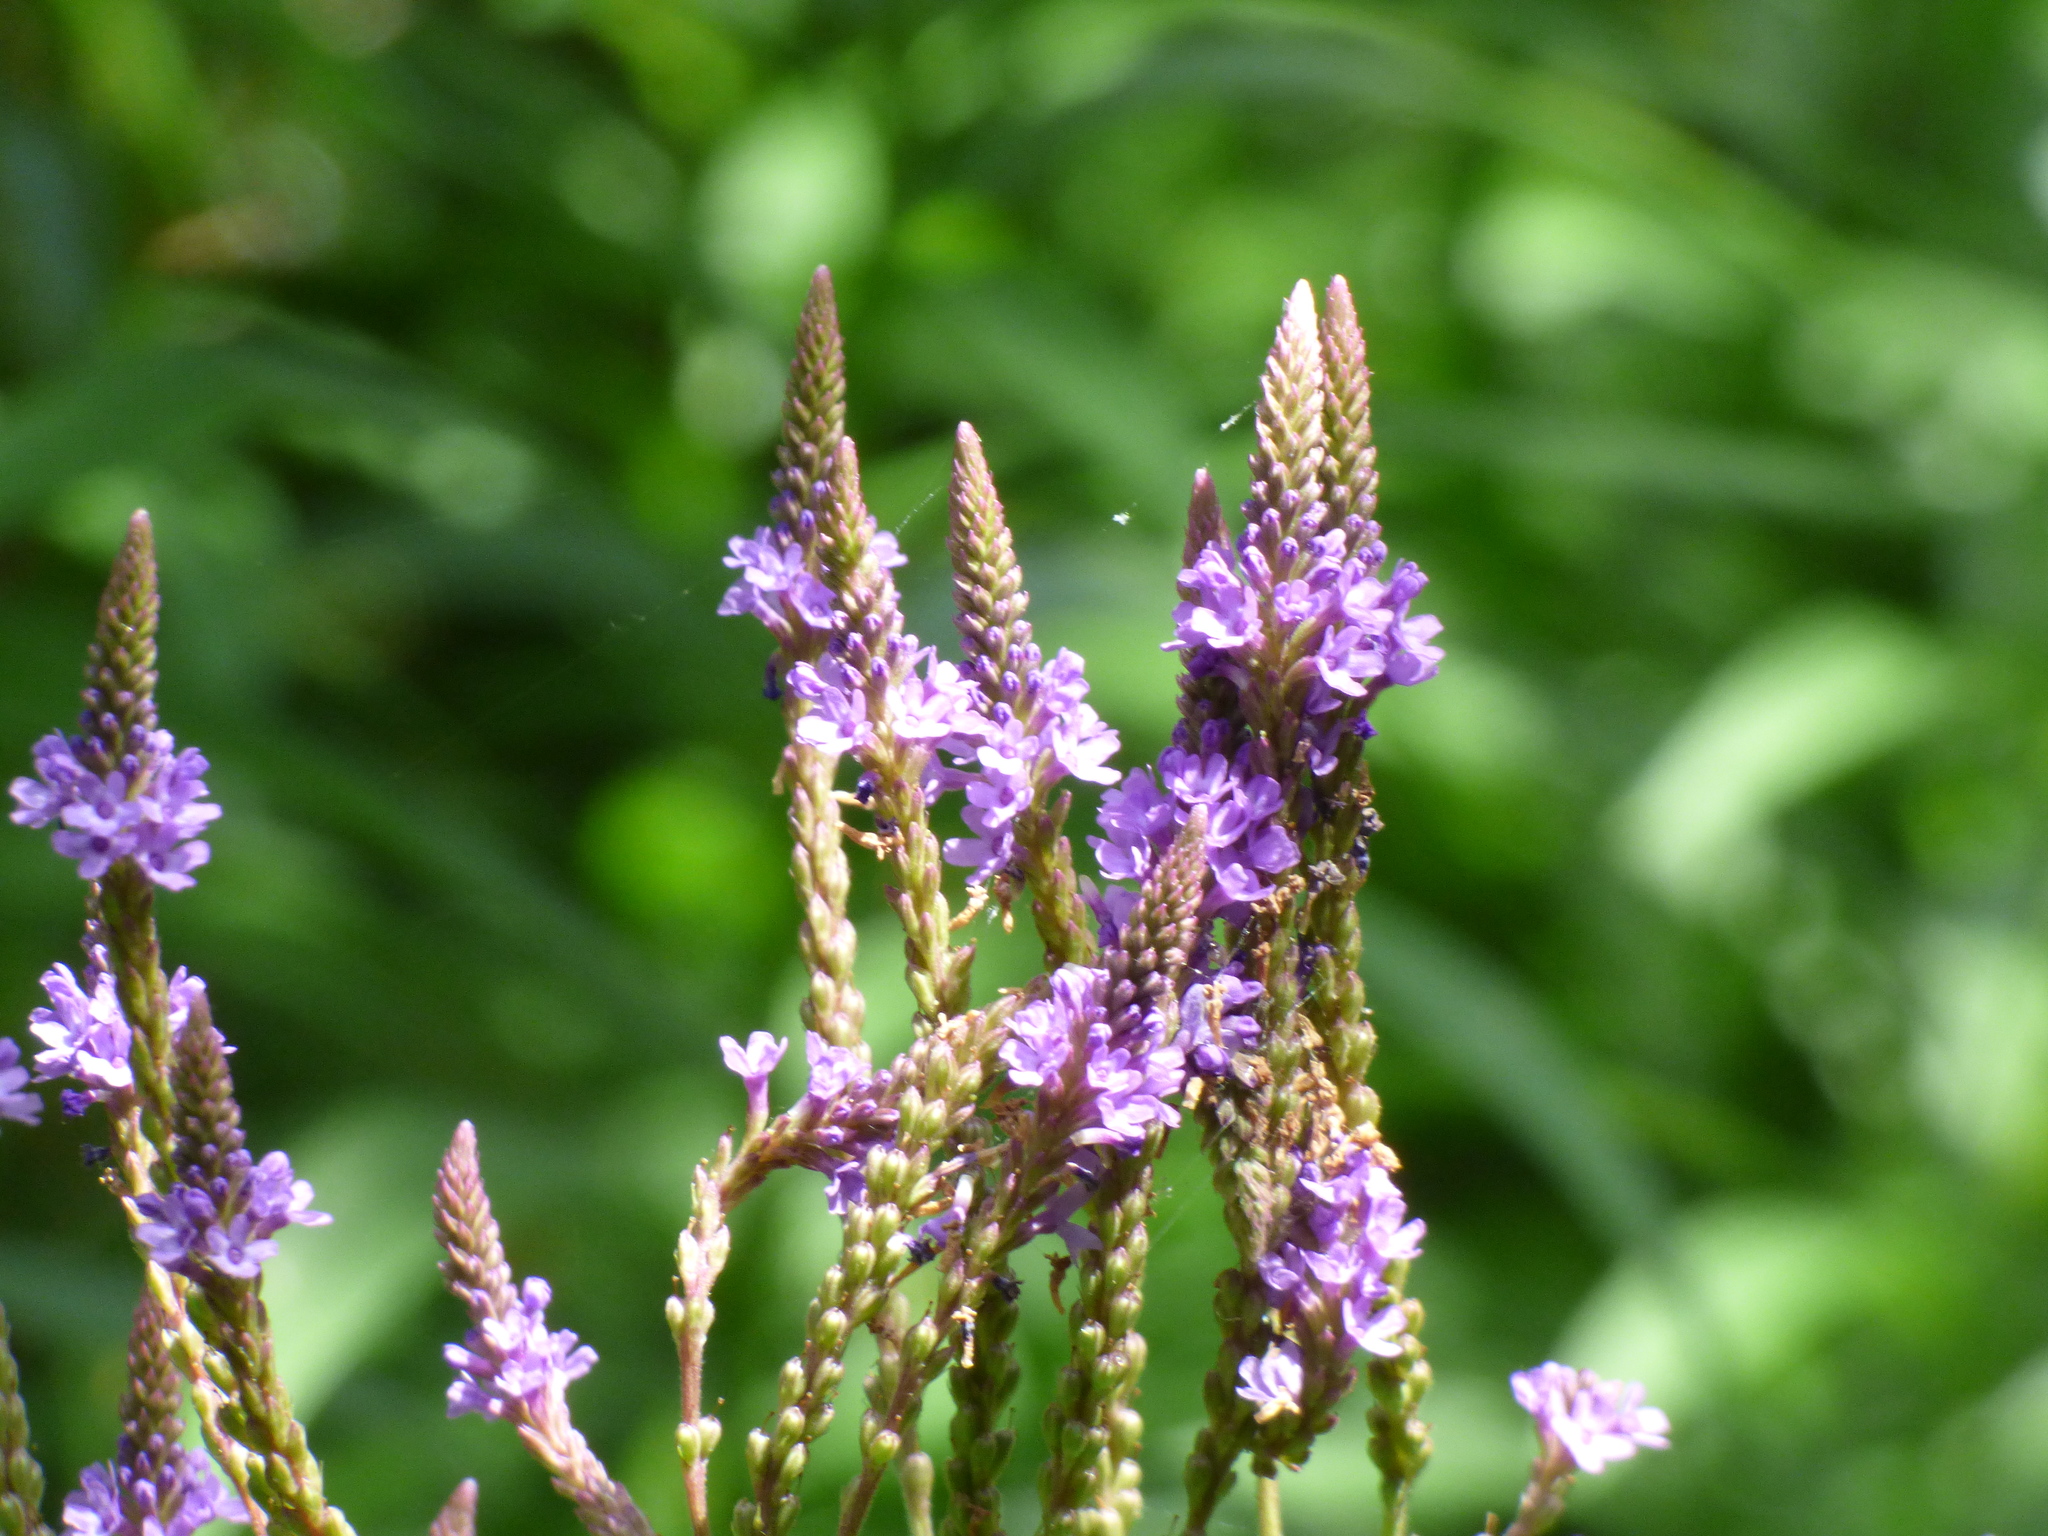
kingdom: Plantae
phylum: Tracheophyta
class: Magnoliopsida
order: Lamiales
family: Verbenaceae
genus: Verbena
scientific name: Verbena hastata
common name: American blue vervain
